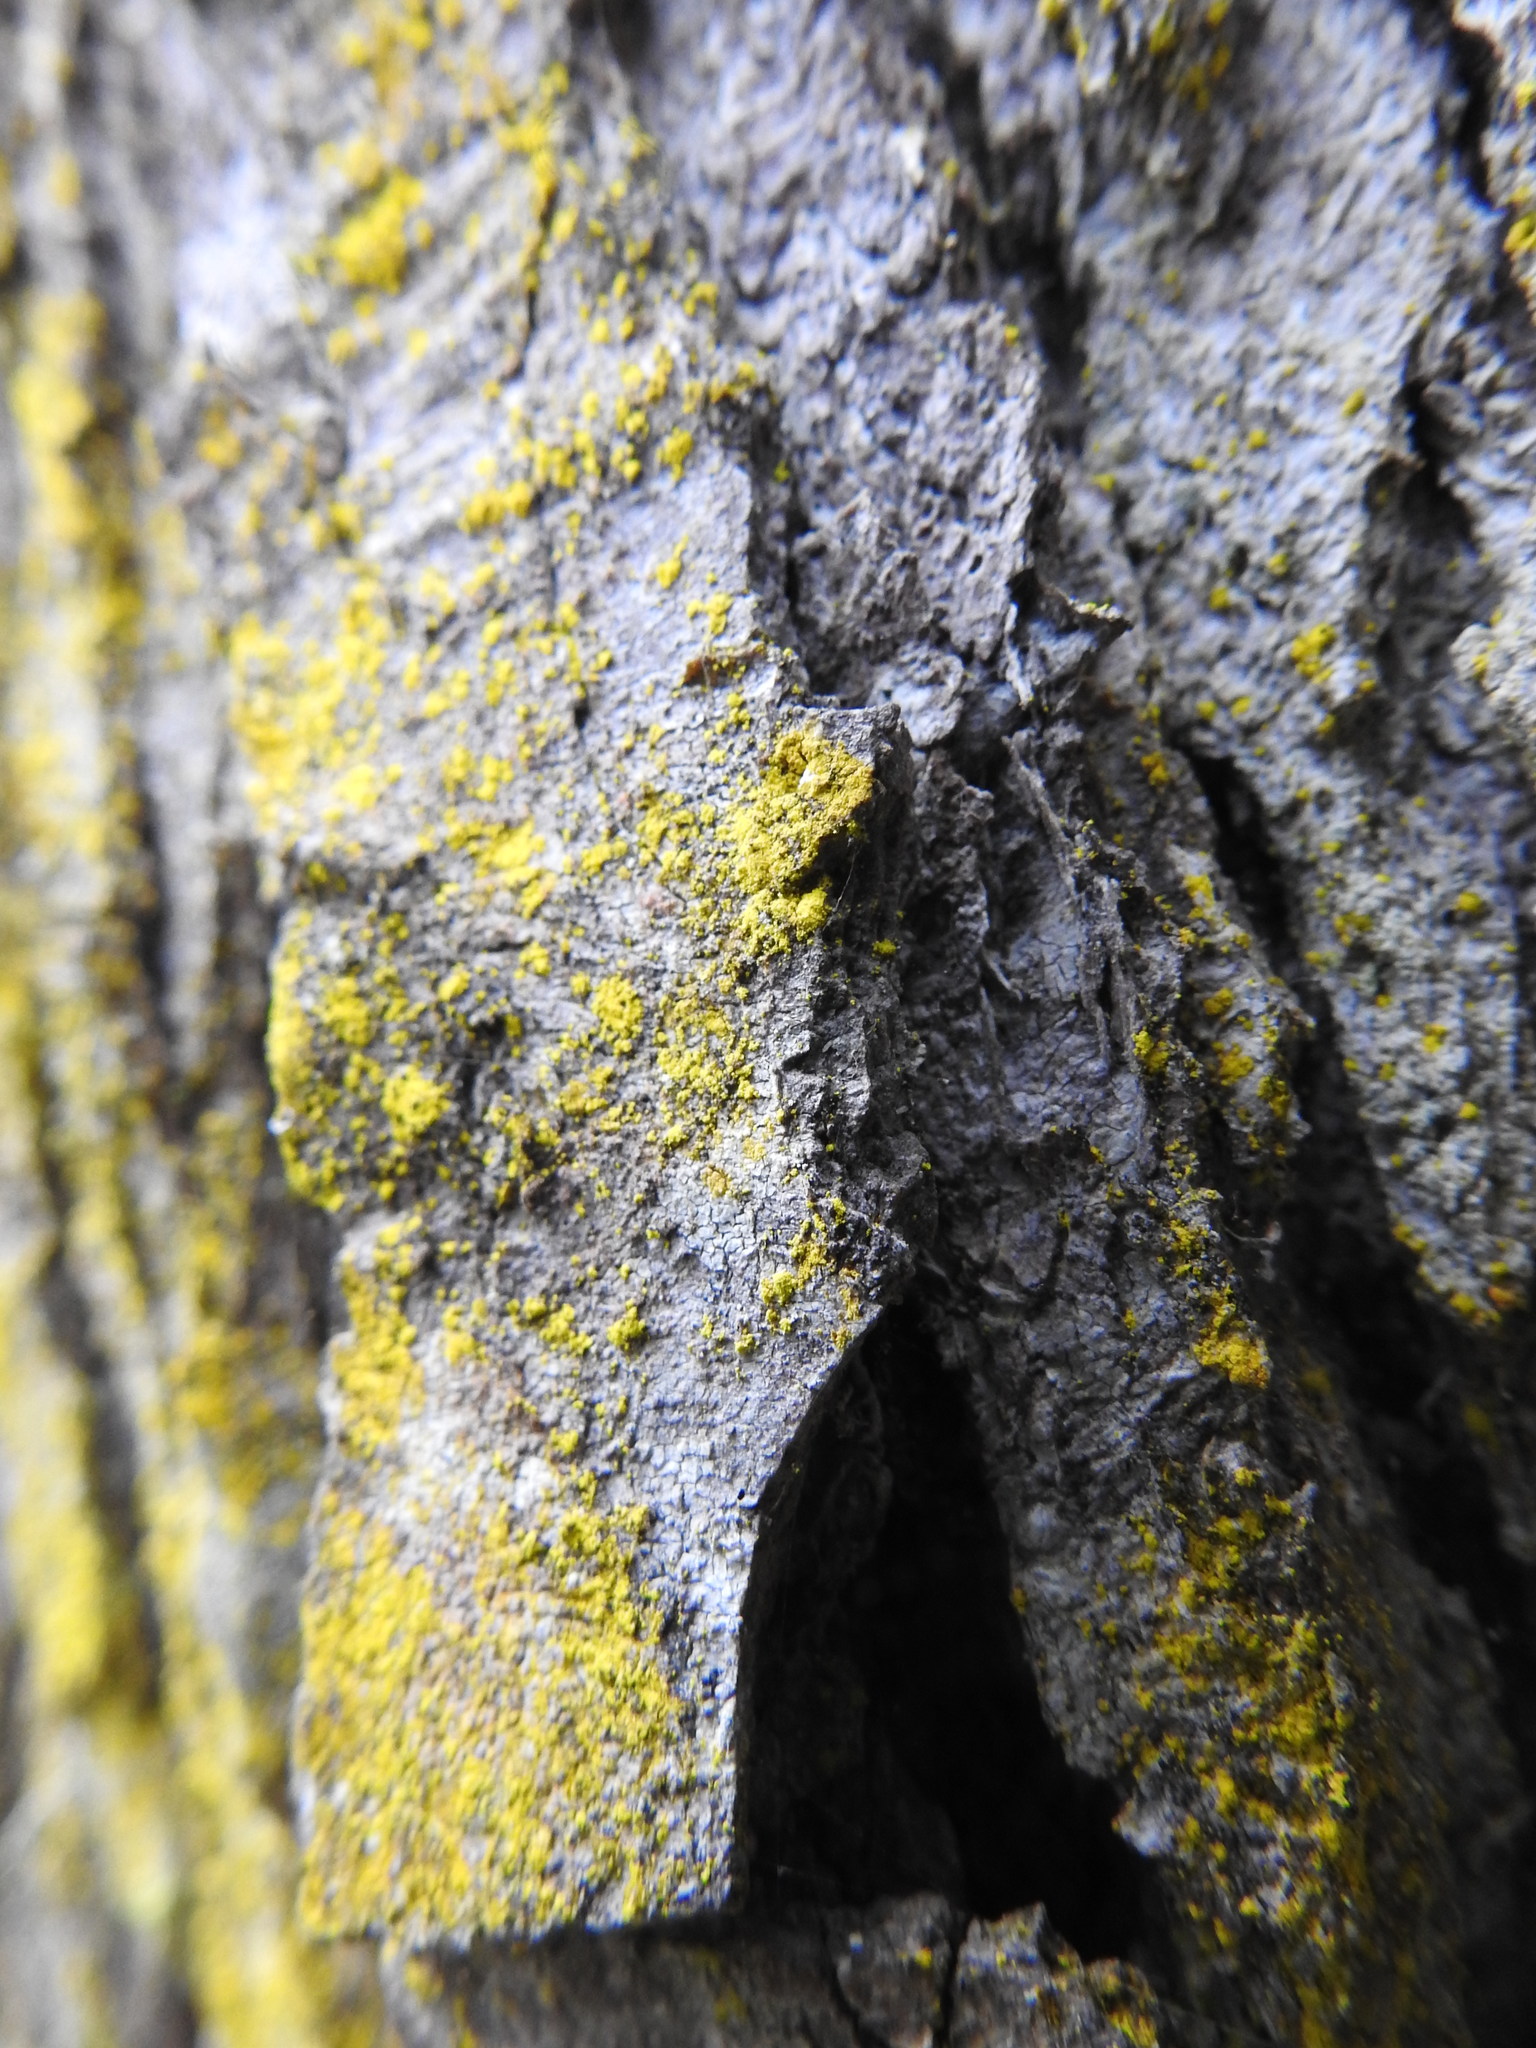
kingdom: Fungi
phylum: Ascomycota
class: Arthoniomycetes
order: Arthoniales
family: Chrysotrichaceae
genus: Chrysothrix
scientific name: Chrysothrix candelaris
